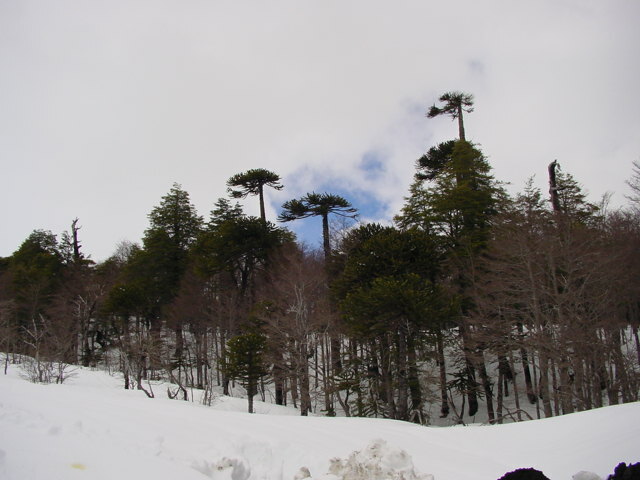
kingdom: Plantae
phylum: Tracheophyta
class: Pinopsida
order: Pinales
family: Araucariaceae
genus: Araucaria
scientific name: Araucaria araucana
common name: Monkey-puzzle
